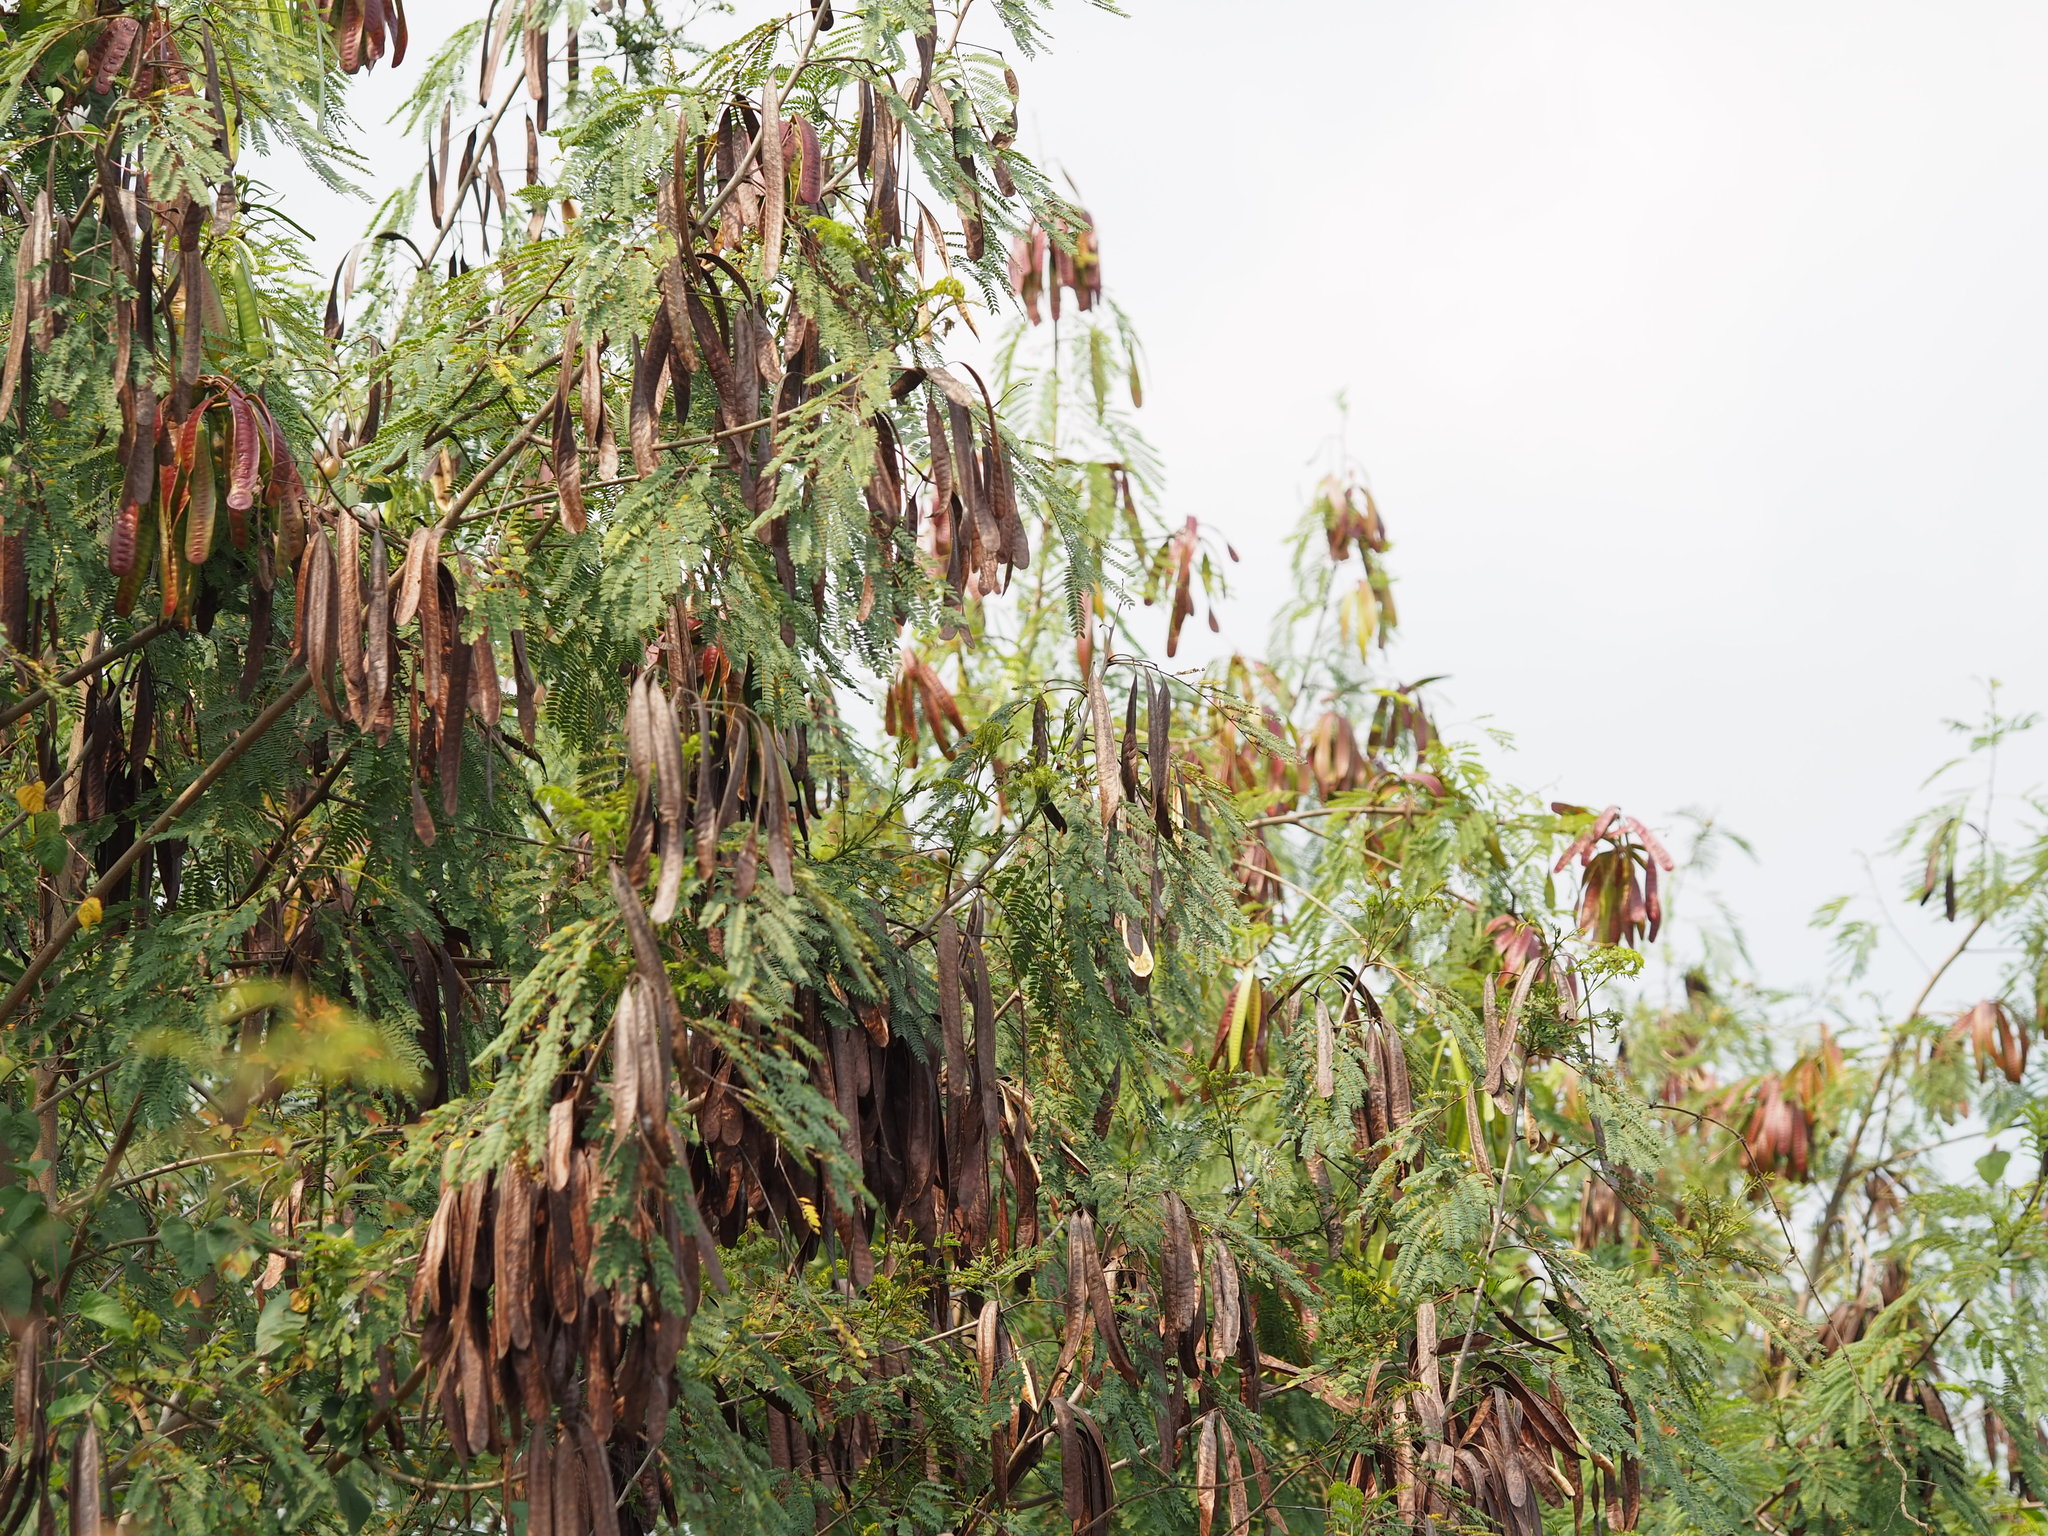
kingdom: Plantae
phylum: Tracheophyta
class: Magnoliopsida
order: Fabales
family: Fabaceae
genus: Leucaena
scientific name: Leucaena leucocephala
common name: White leadtree
